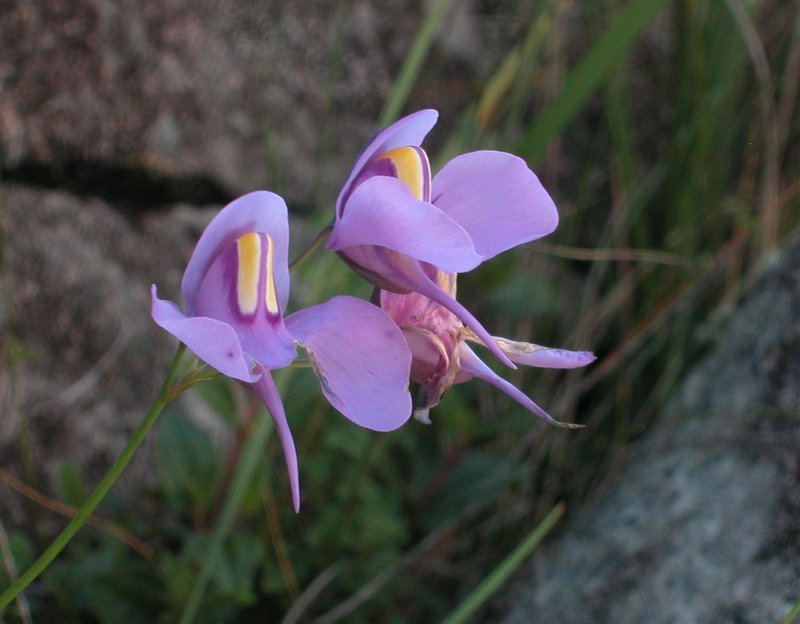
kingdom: Plantae
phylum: Tracheophyta
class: Magnoliopsida
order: Lamiales
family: Lentibulariaceae
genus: Utricularia
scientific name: Utricularia reniformis
